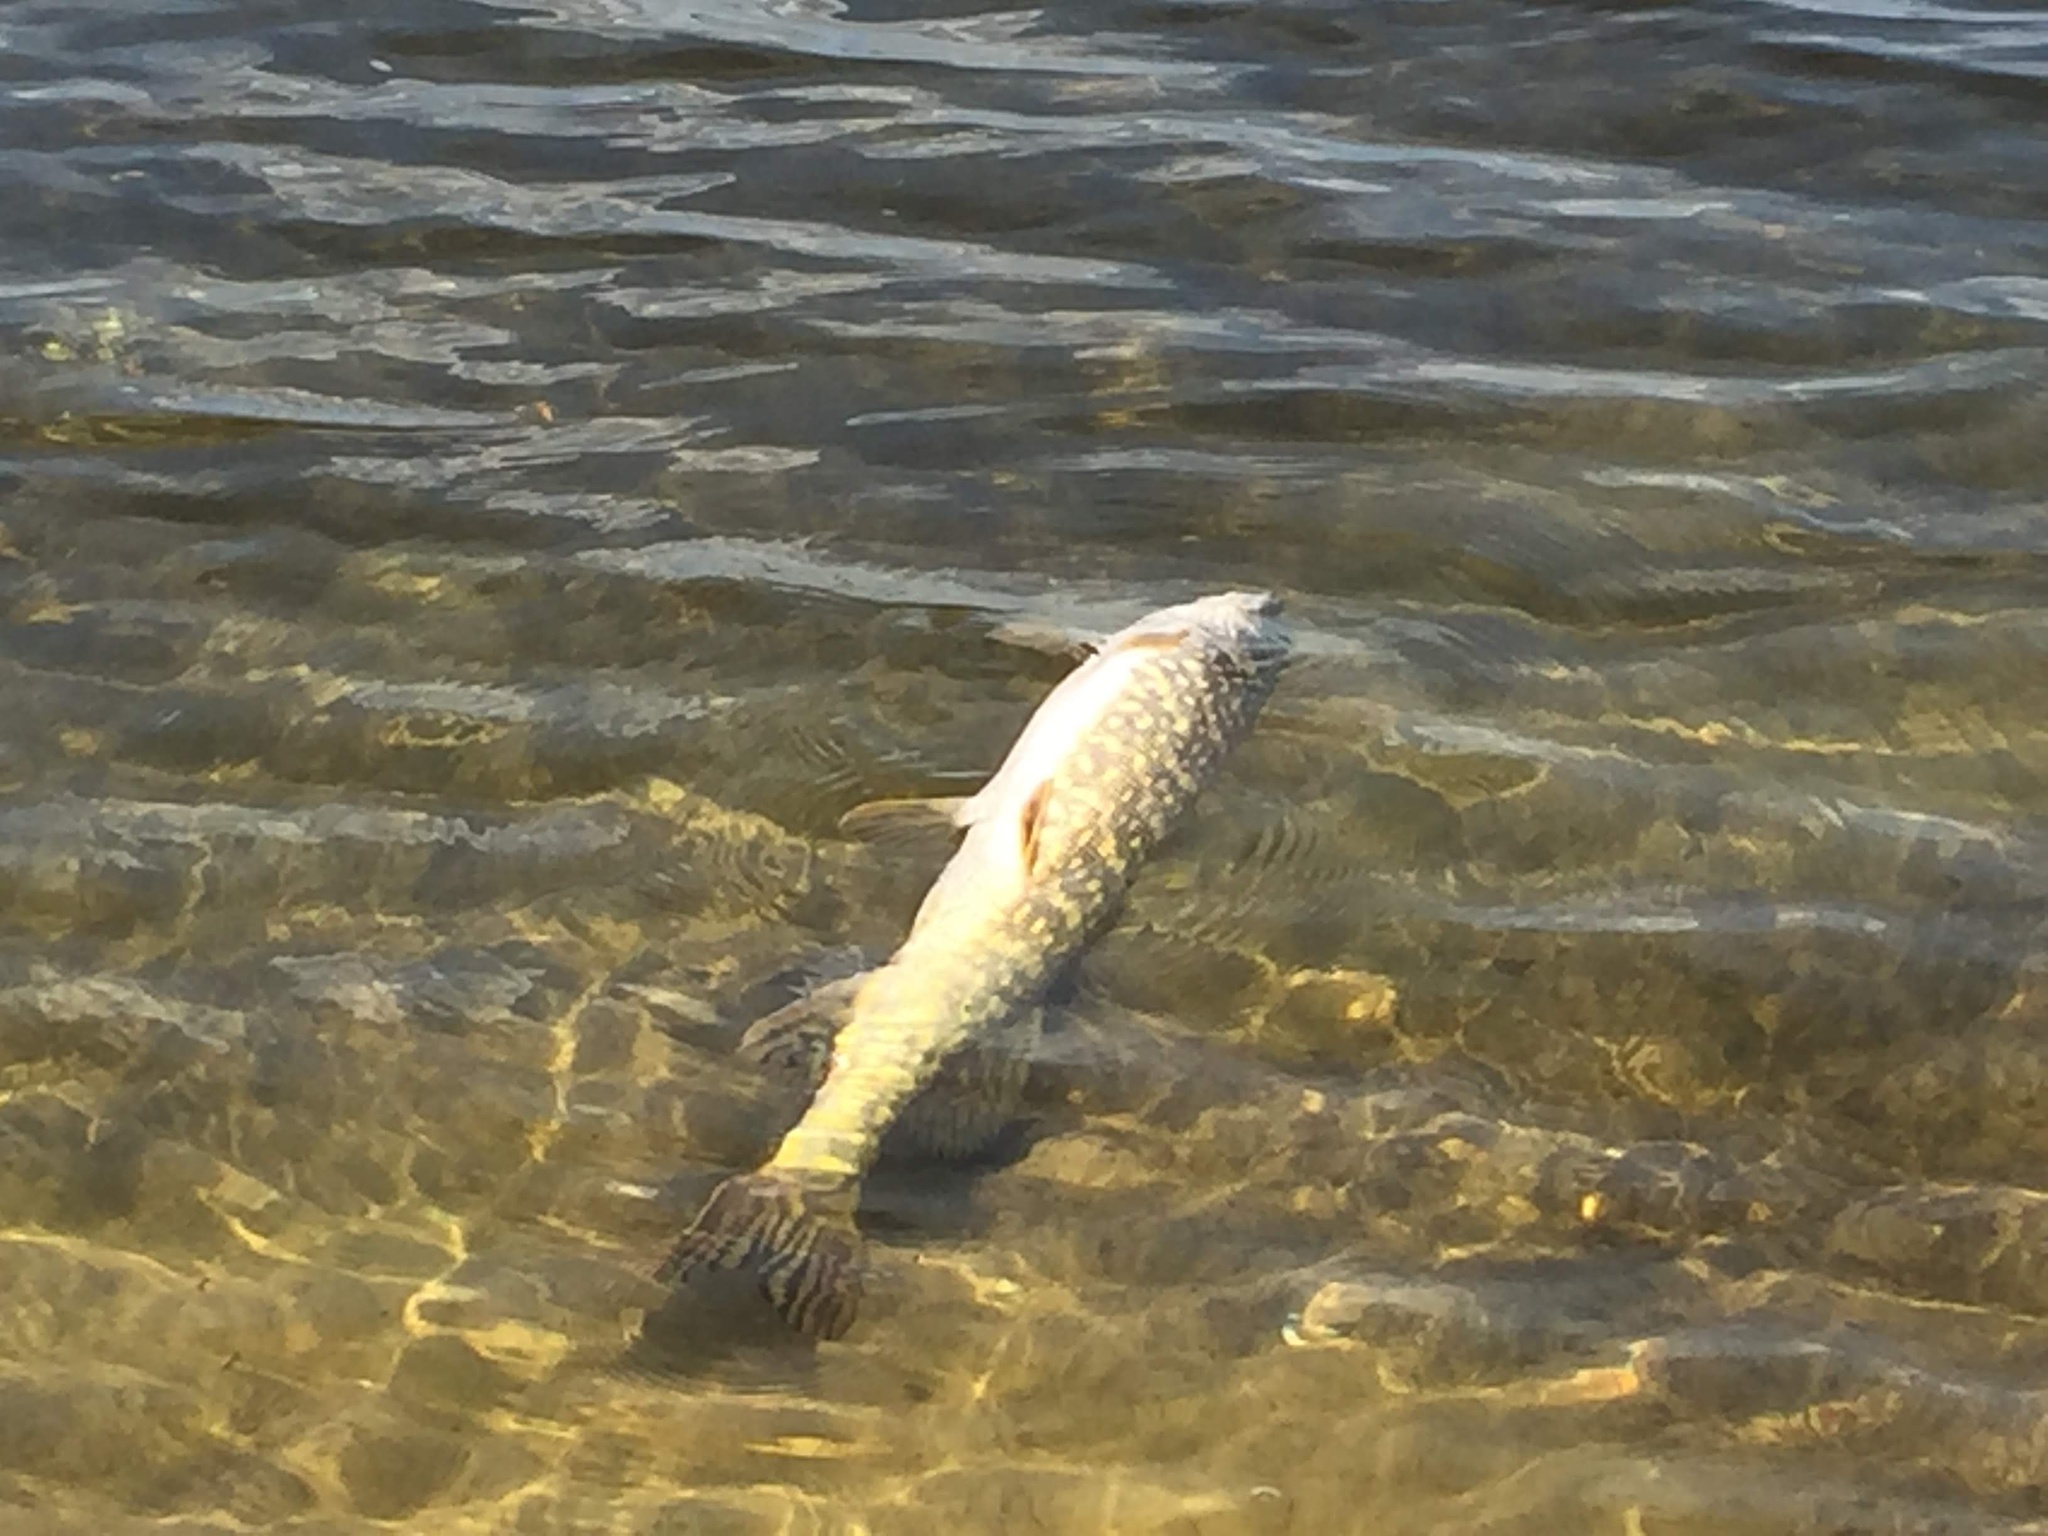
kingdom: Animalia
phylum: Chordata
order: Esociformes
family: Esocidae
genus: Esox
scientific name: Esox lucius
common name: Northern pike
